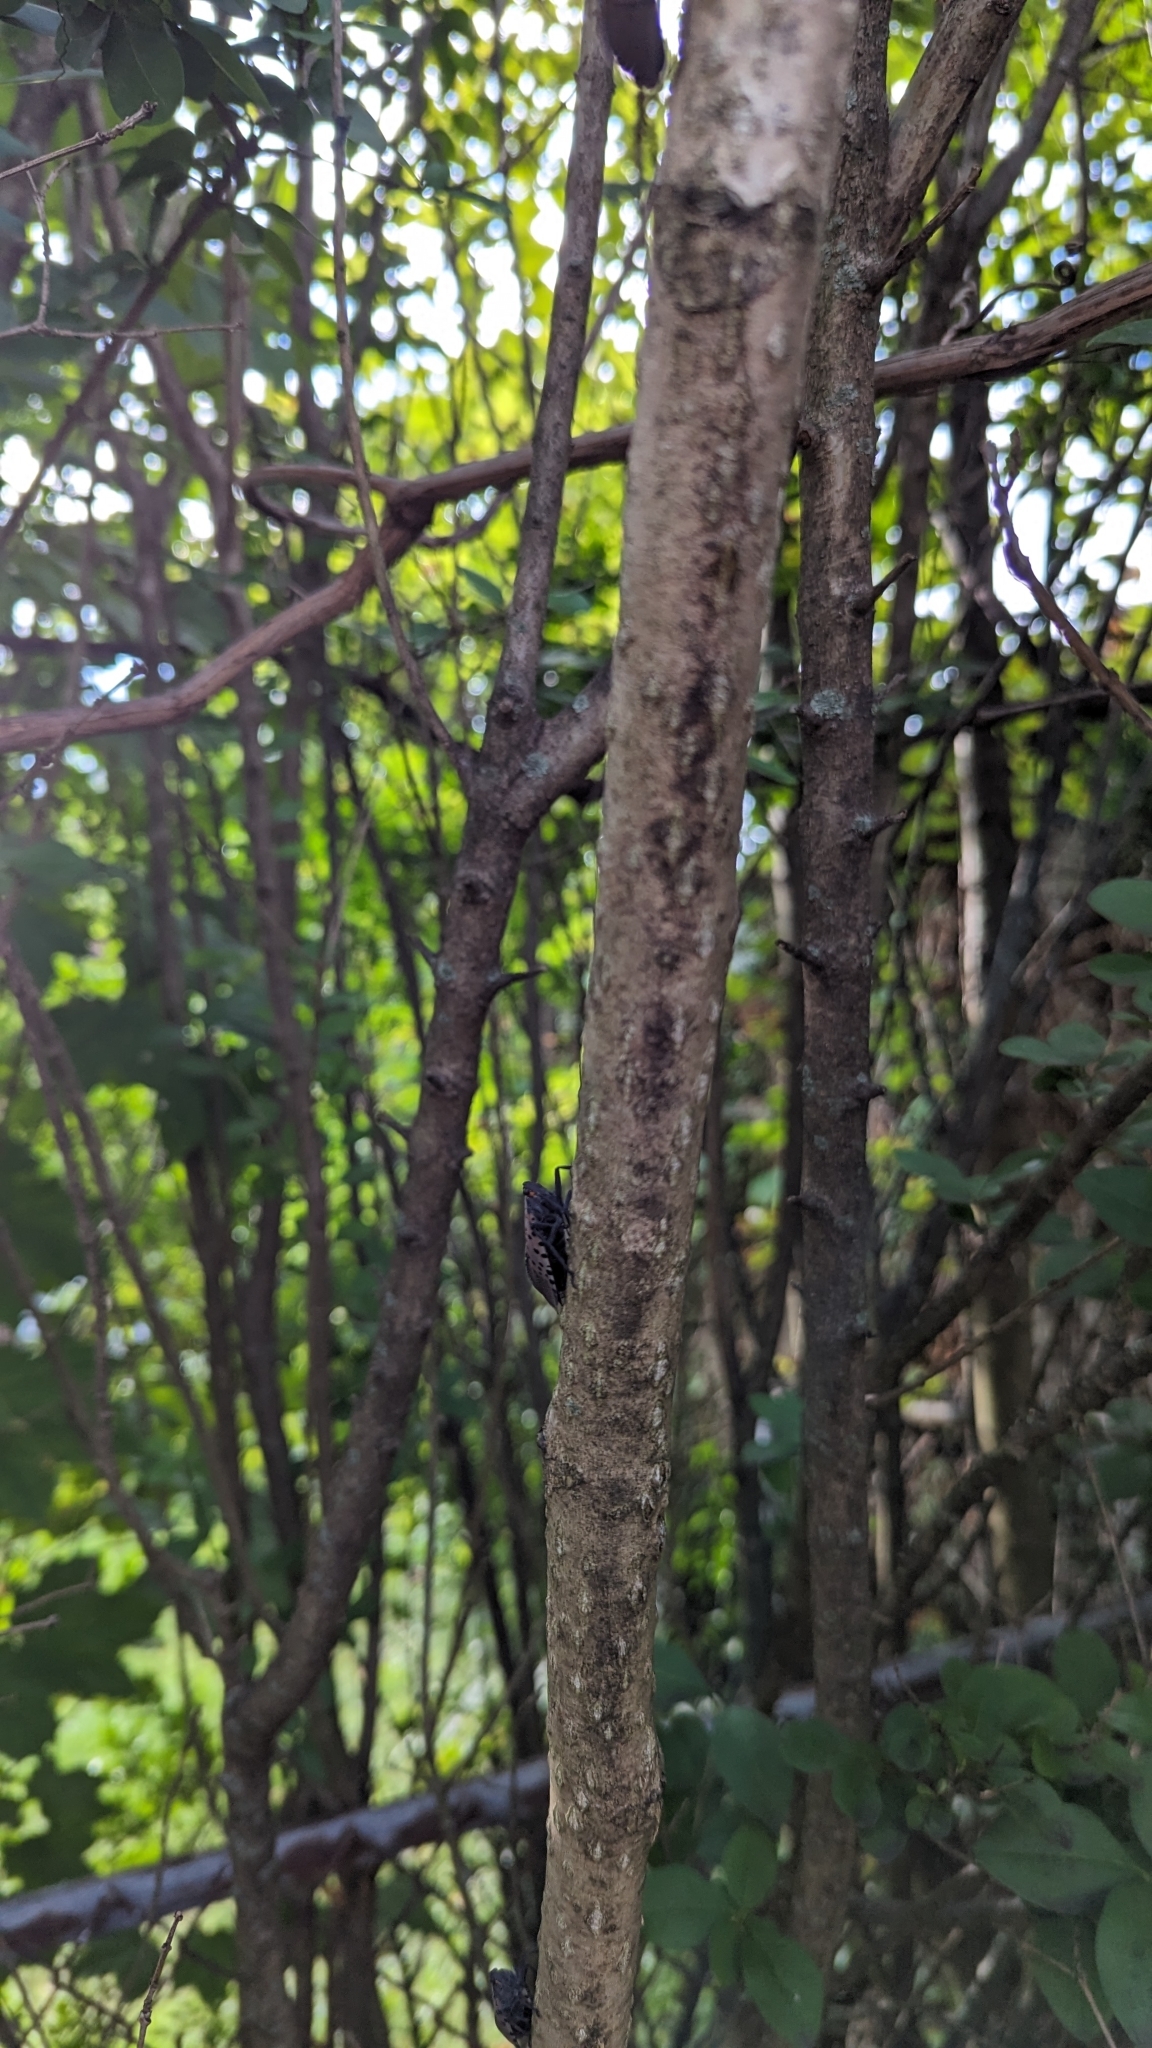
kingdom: Animalia
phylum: Arthropoda
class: Insecta
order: Hemiptera
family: Fulgoridae
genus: Lycorma
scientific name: Lycorma delicatula
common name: Spotted lanternfly
